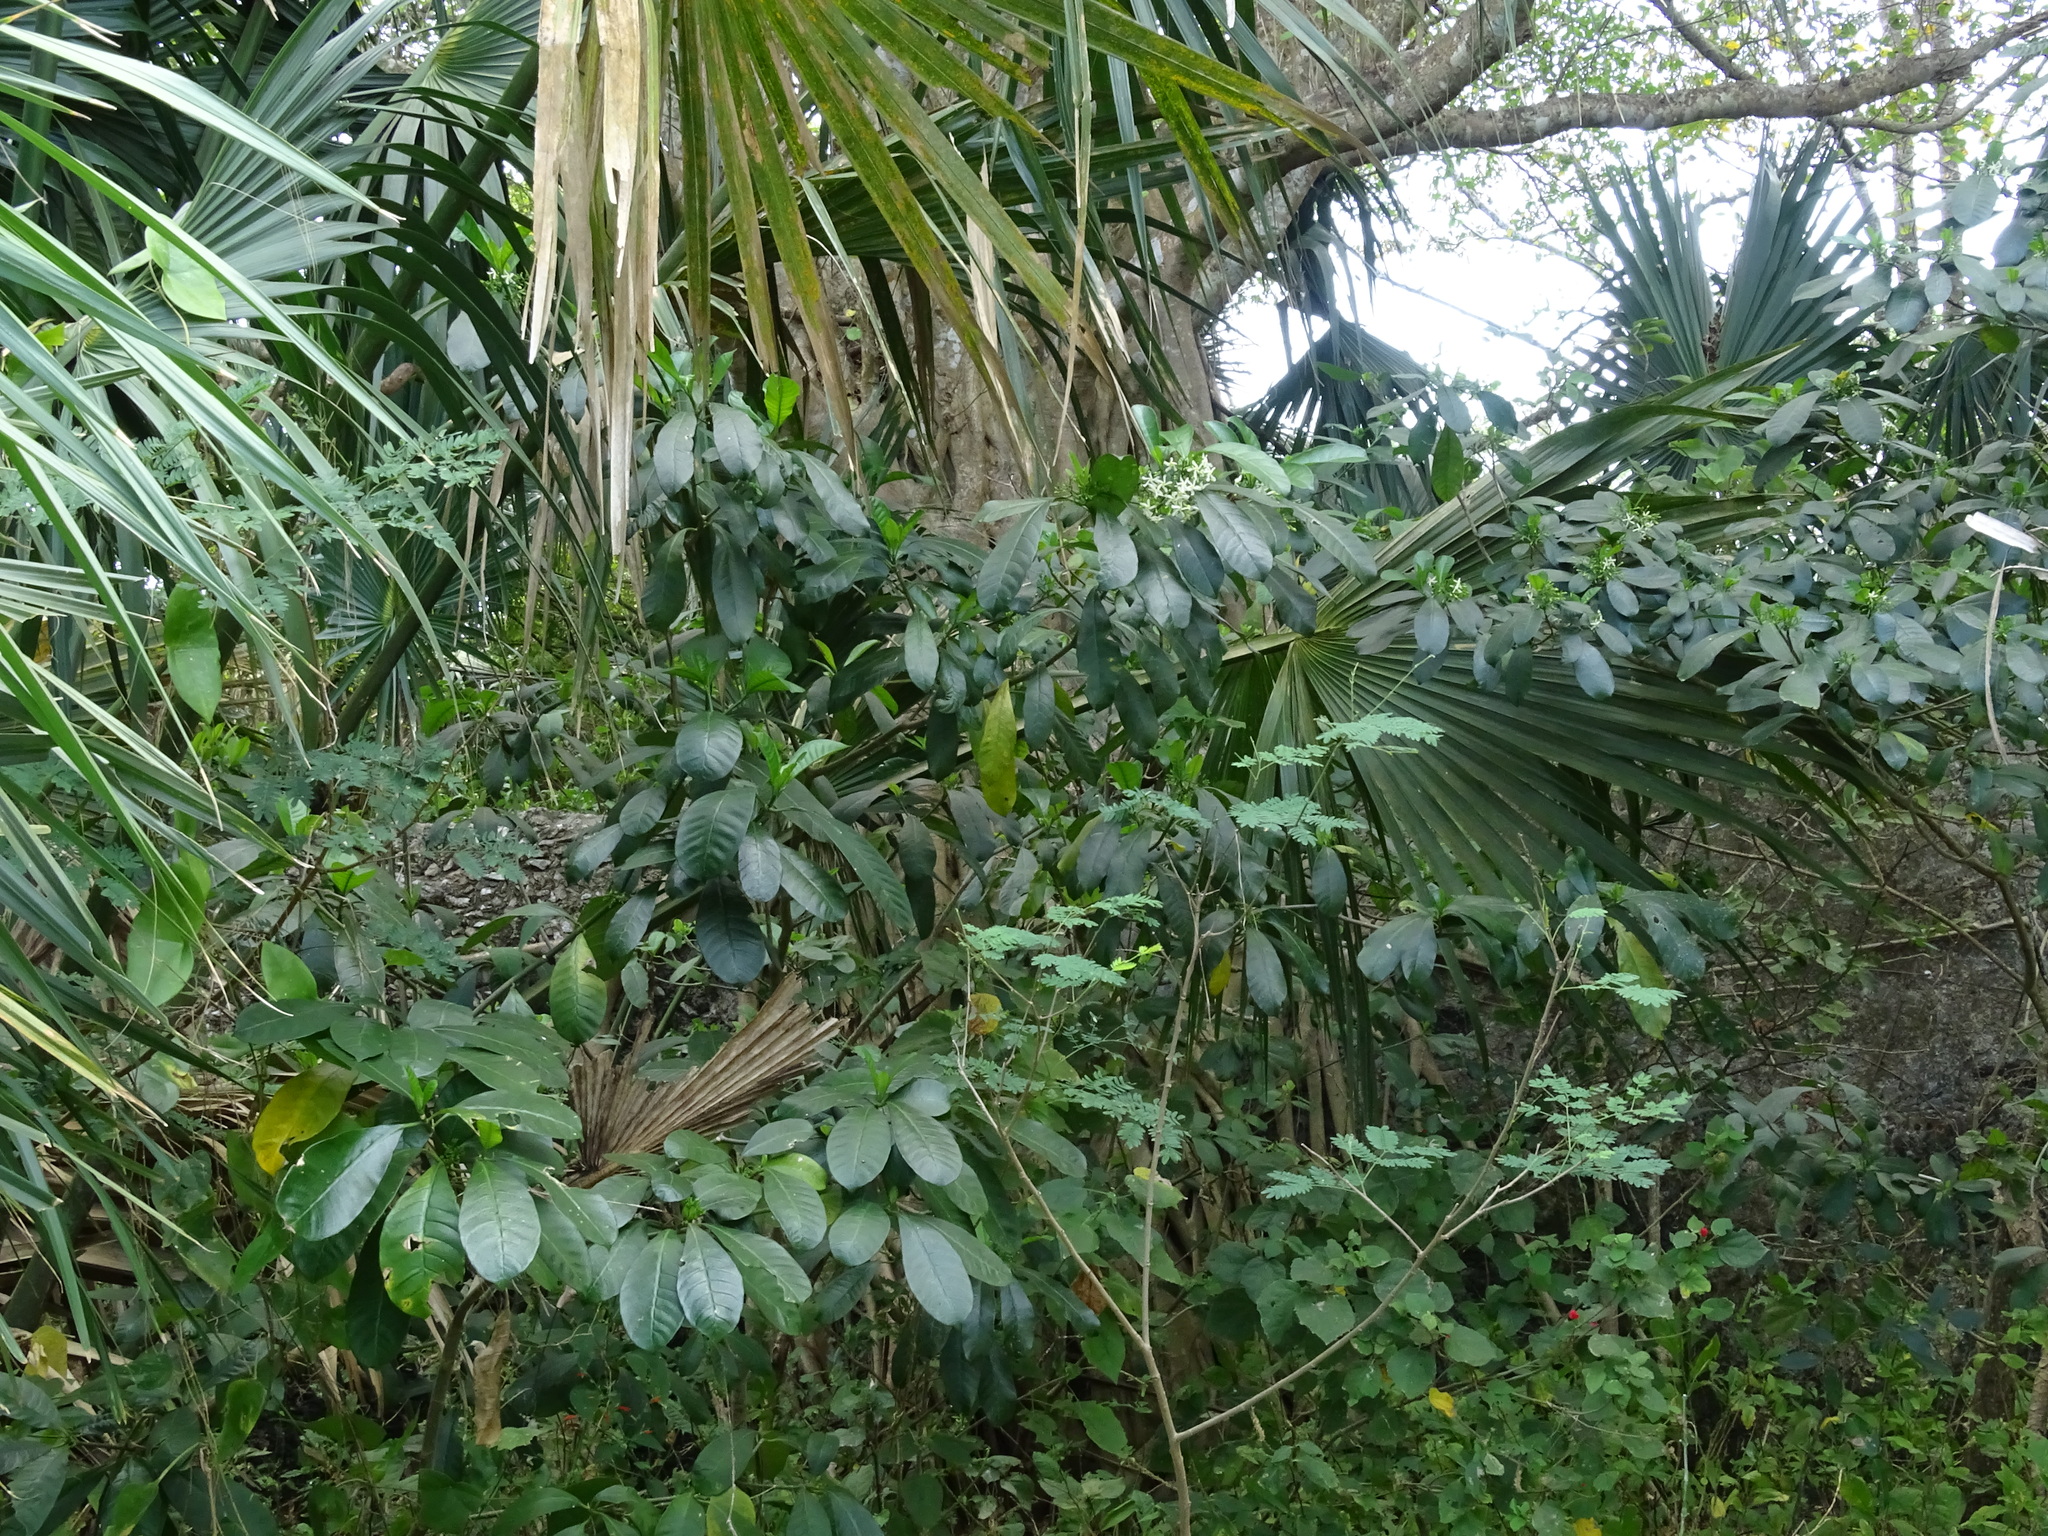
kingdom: Plantae
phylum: Tracheophyta
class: Magnoliopsida
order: Gentianales
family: Apocynaceae
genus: Tabernaemontana
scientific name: Tabernaemontana alba
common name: White milkwood
